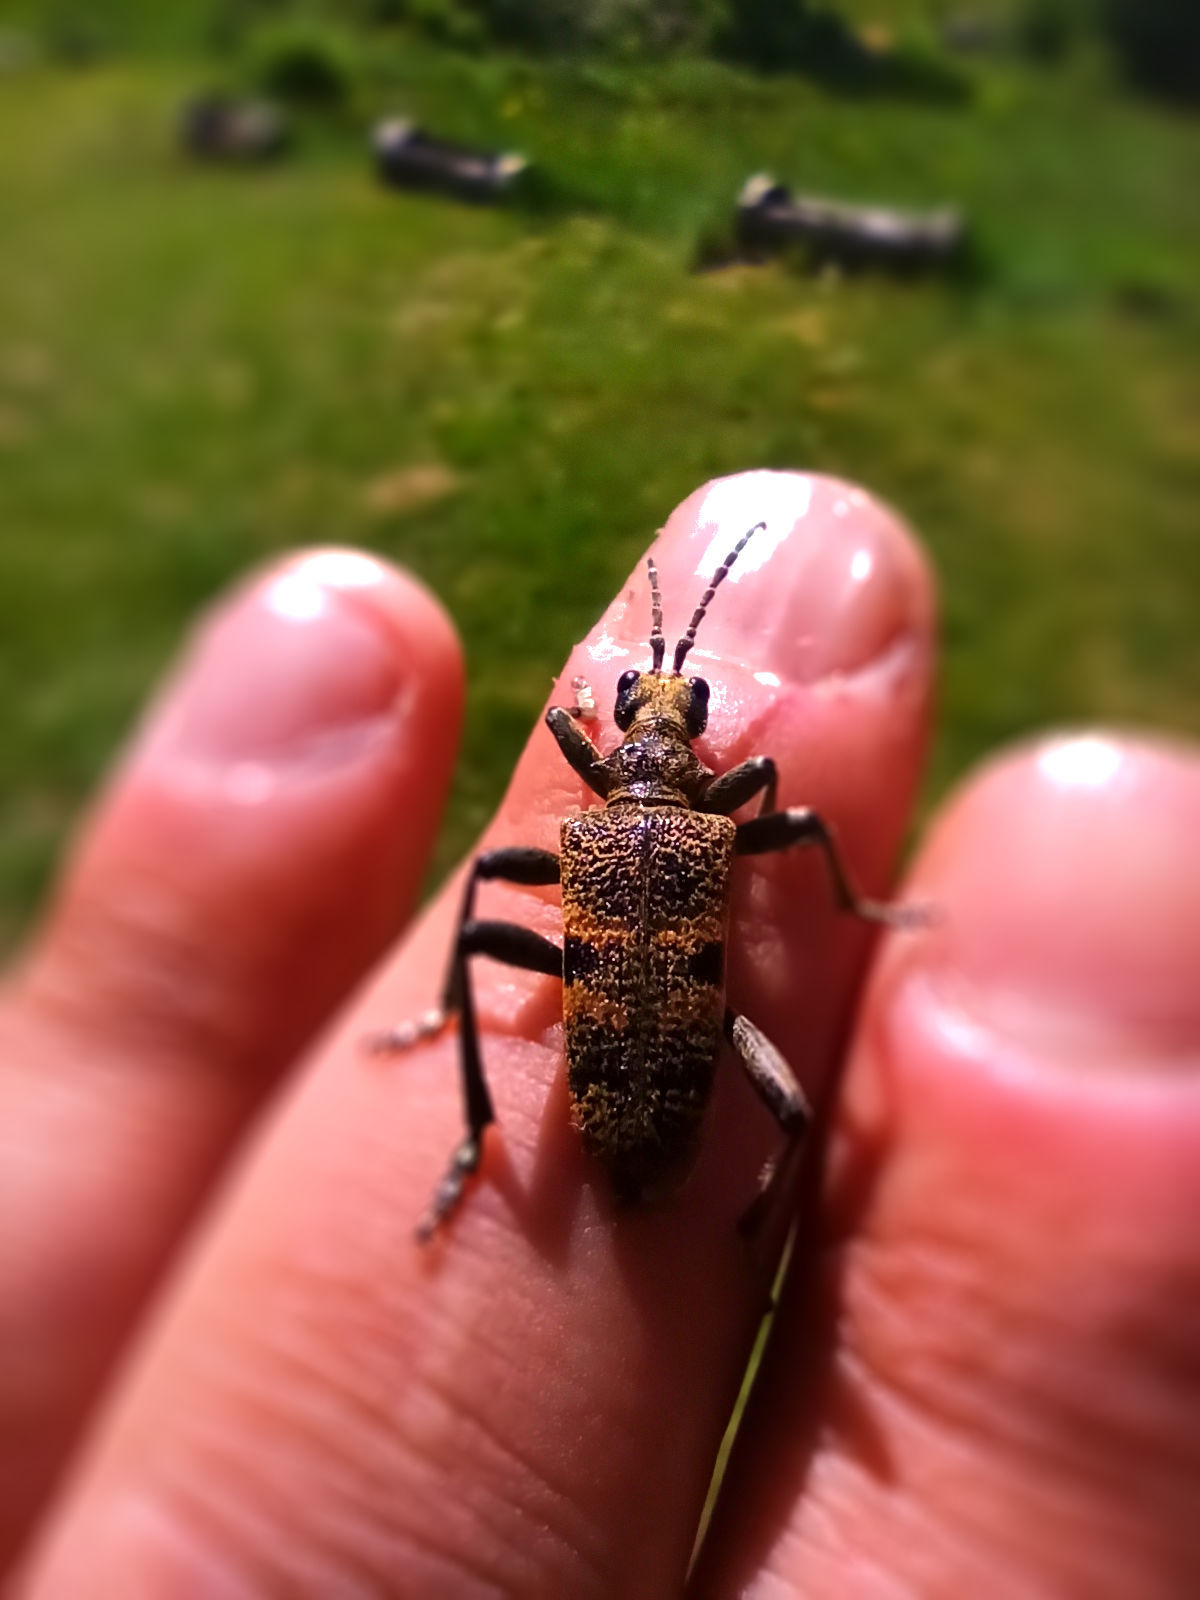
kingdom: Animalia
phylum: Arthropoda
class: Insecta
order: Coleoptera
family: Cerambycidae
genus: Rhagium
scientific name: Rhagium mordax
